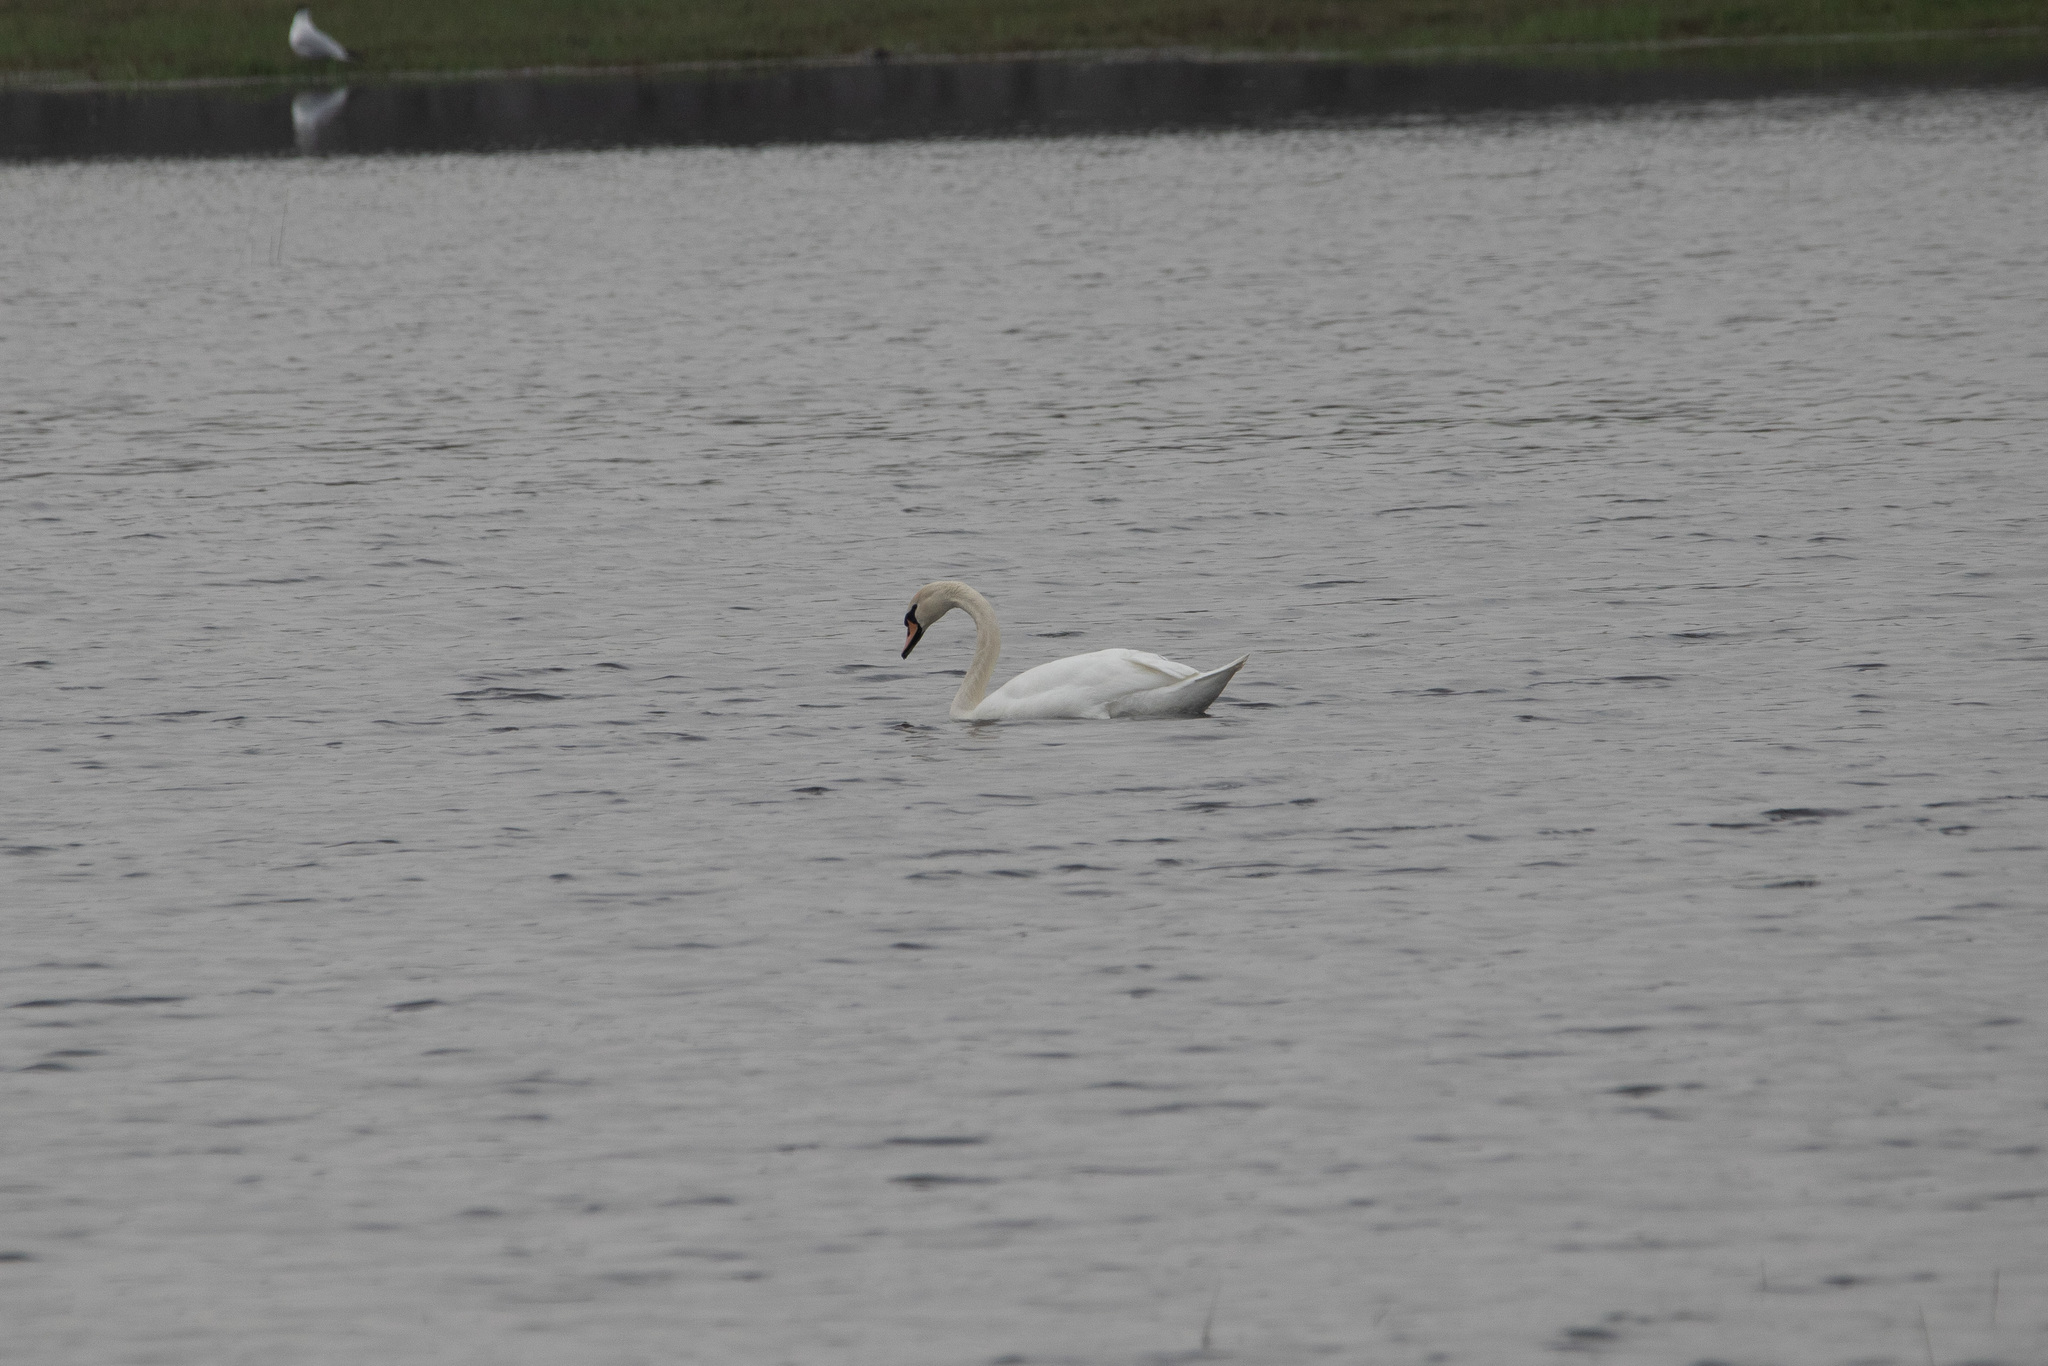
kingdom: Animalia
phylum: Chordata
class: Aves
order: Anseriformes
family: Anatidae
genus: Cygnus
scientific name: Cygnus olor
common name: Mute swan
